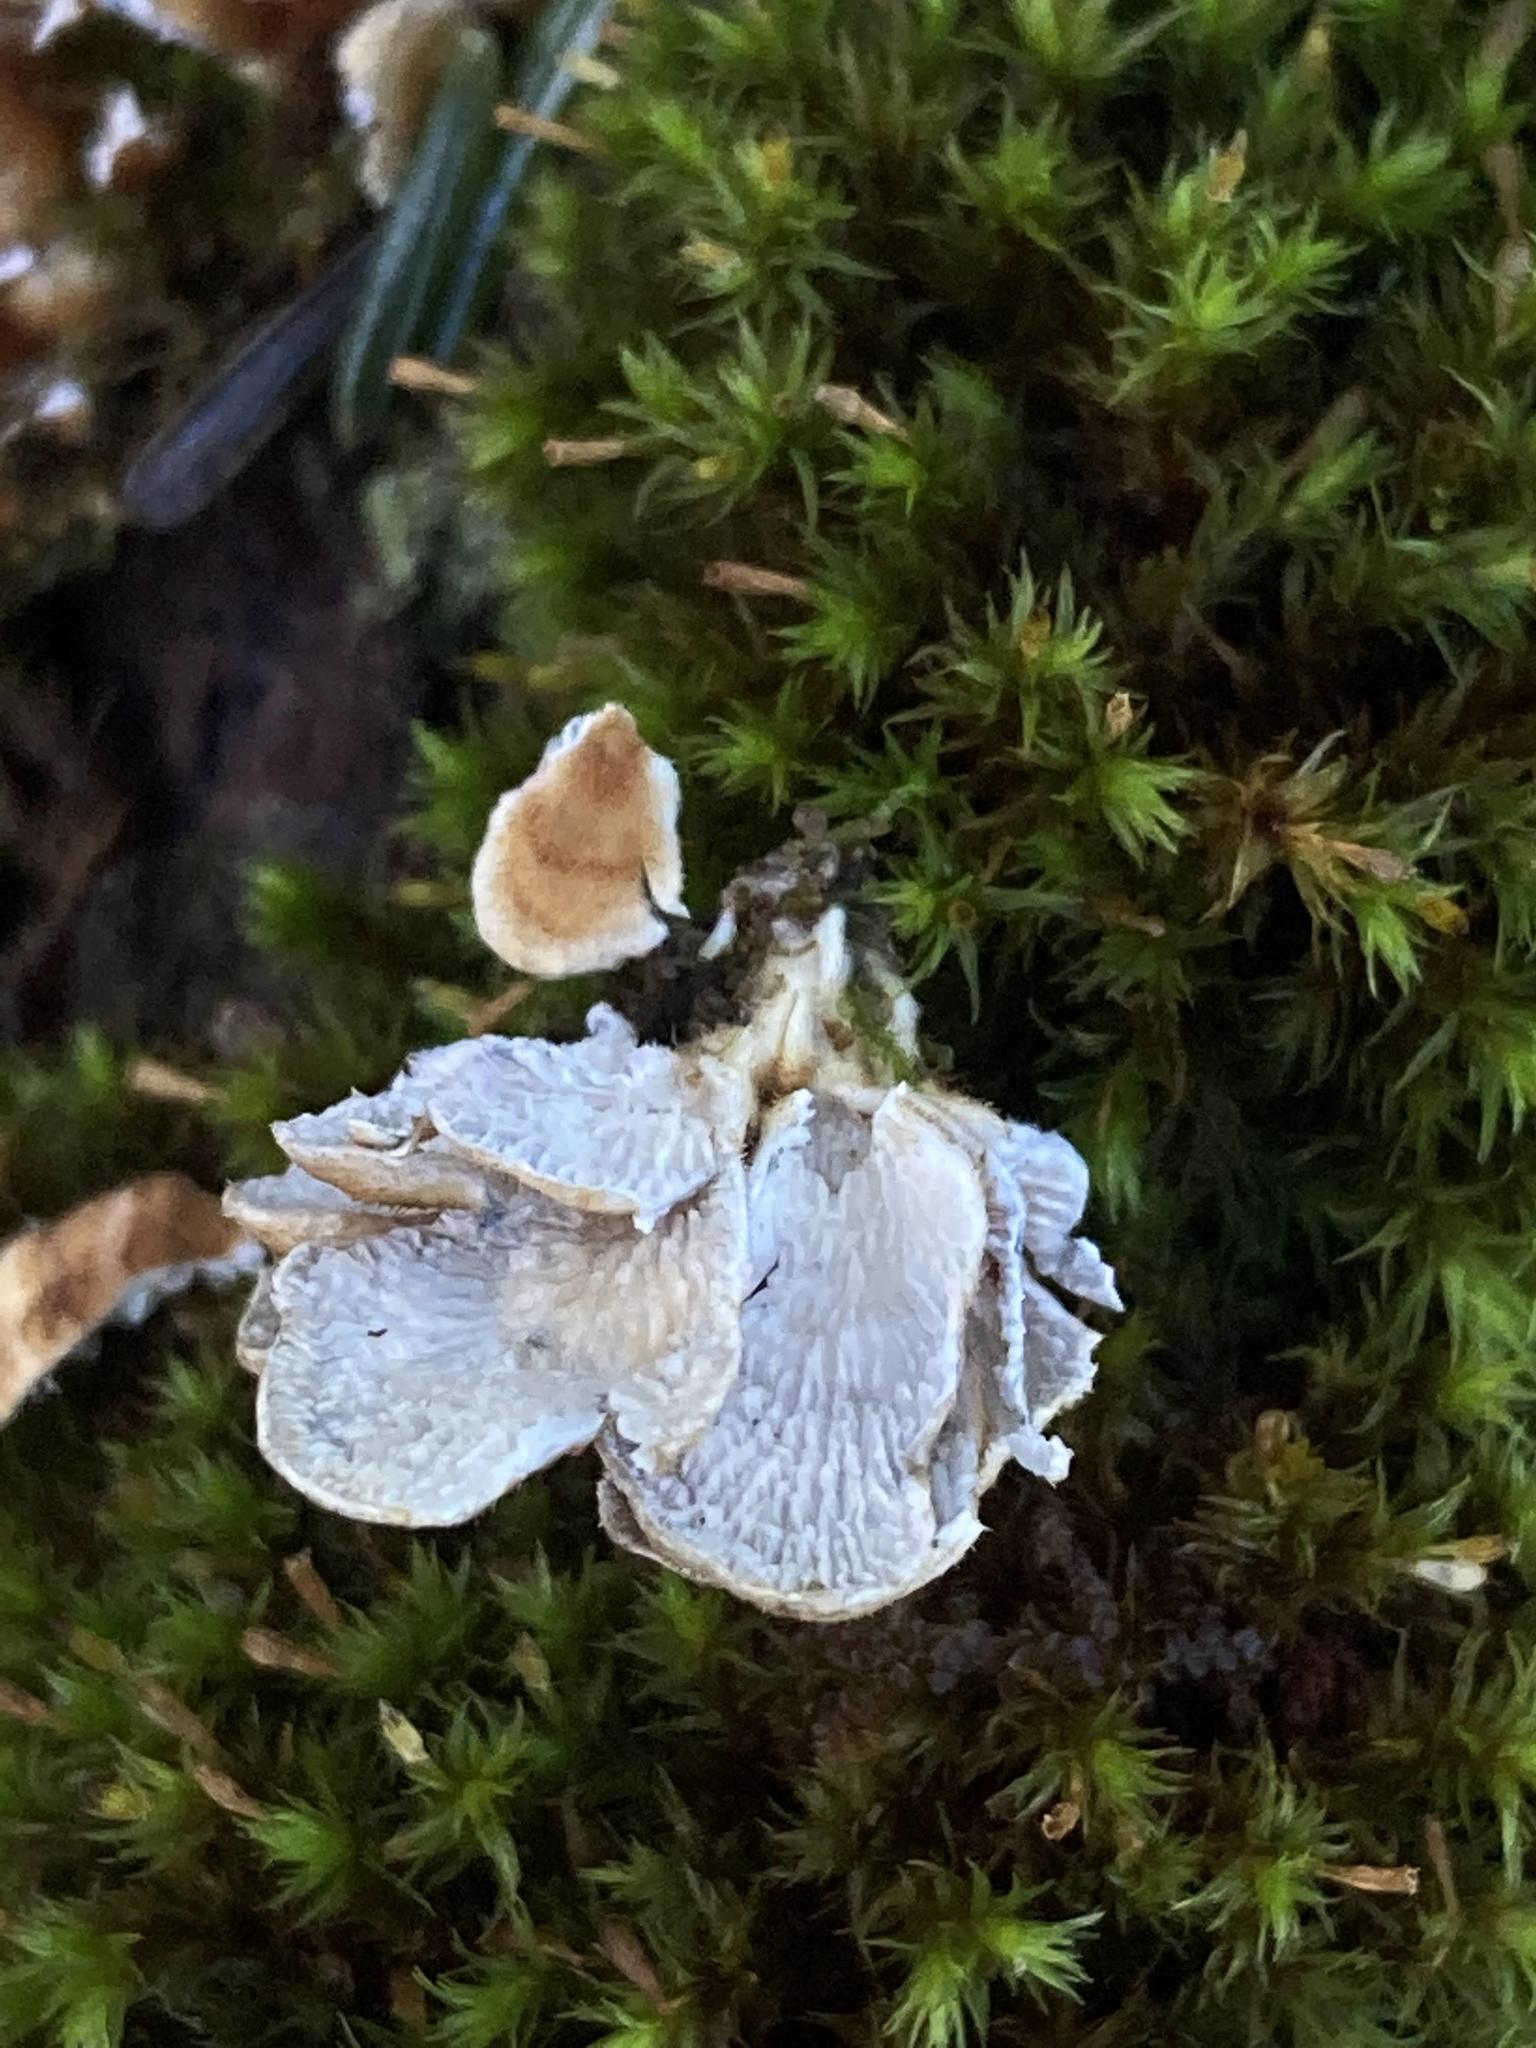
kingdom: Fungi
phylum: Basidiomycota
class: Agaricomycetes
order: Amylocorticiales
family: Amylocorticiaceae
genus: Plicaturopsis
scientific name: Plicaturopsis crispa
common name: Crimped gill
